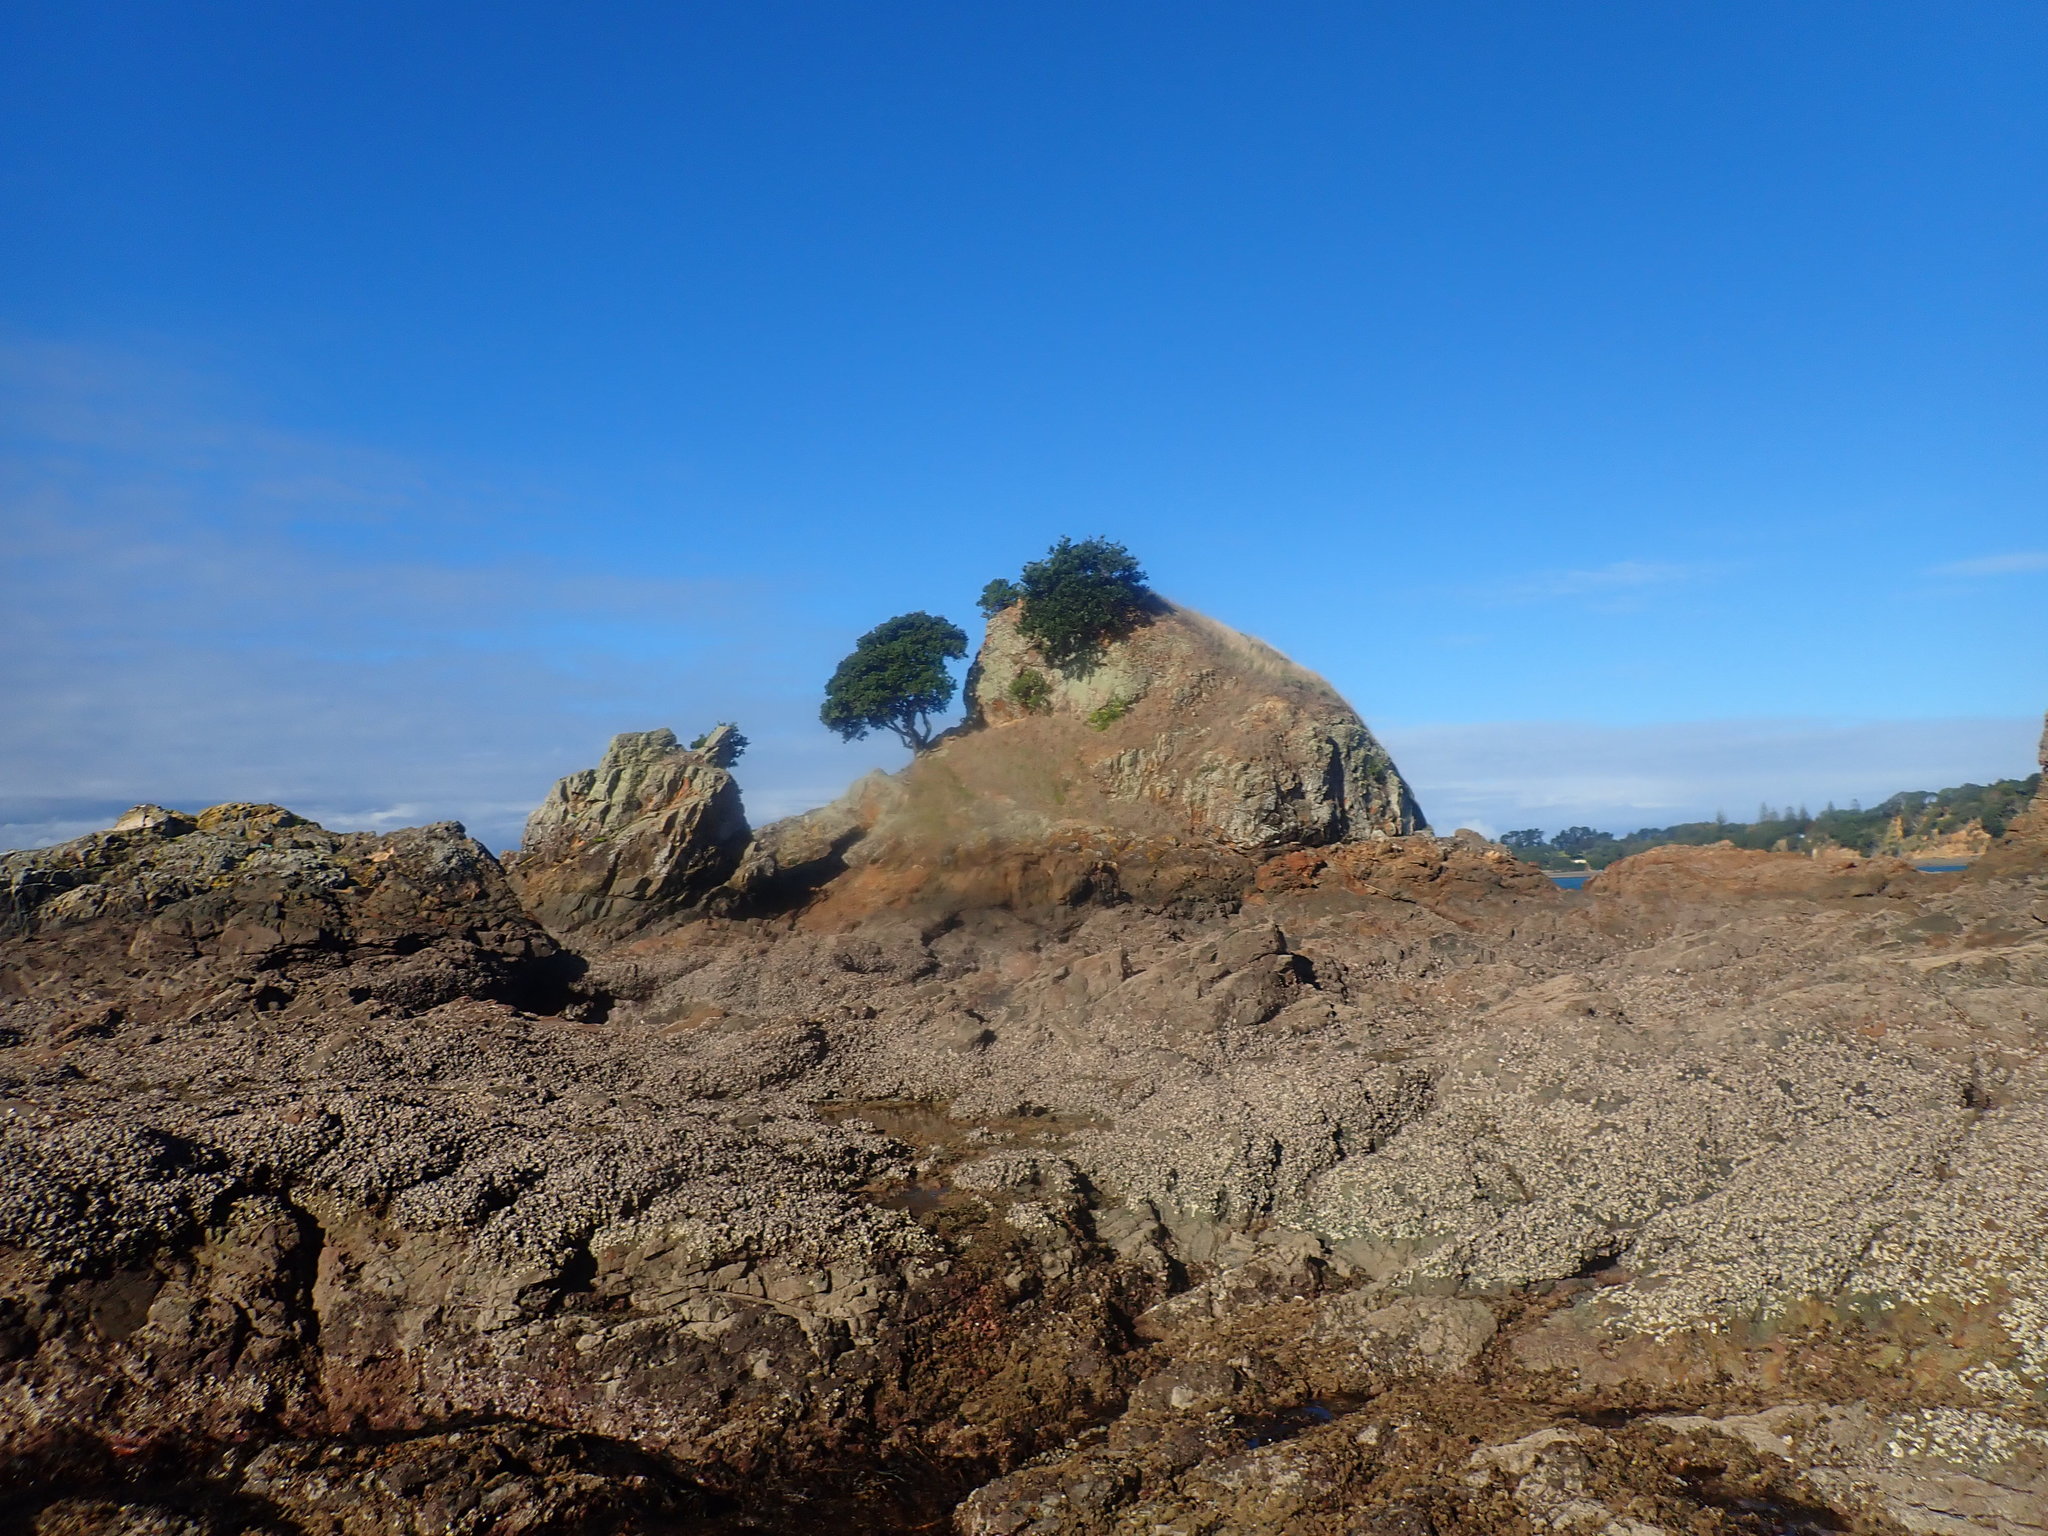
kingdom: Chromista
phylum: Ochrophyta
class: Phaeophyceae
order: Fucales
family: Sargassaceae
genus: Carpophyllum
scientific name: Carpophyllum maschalocarpum
